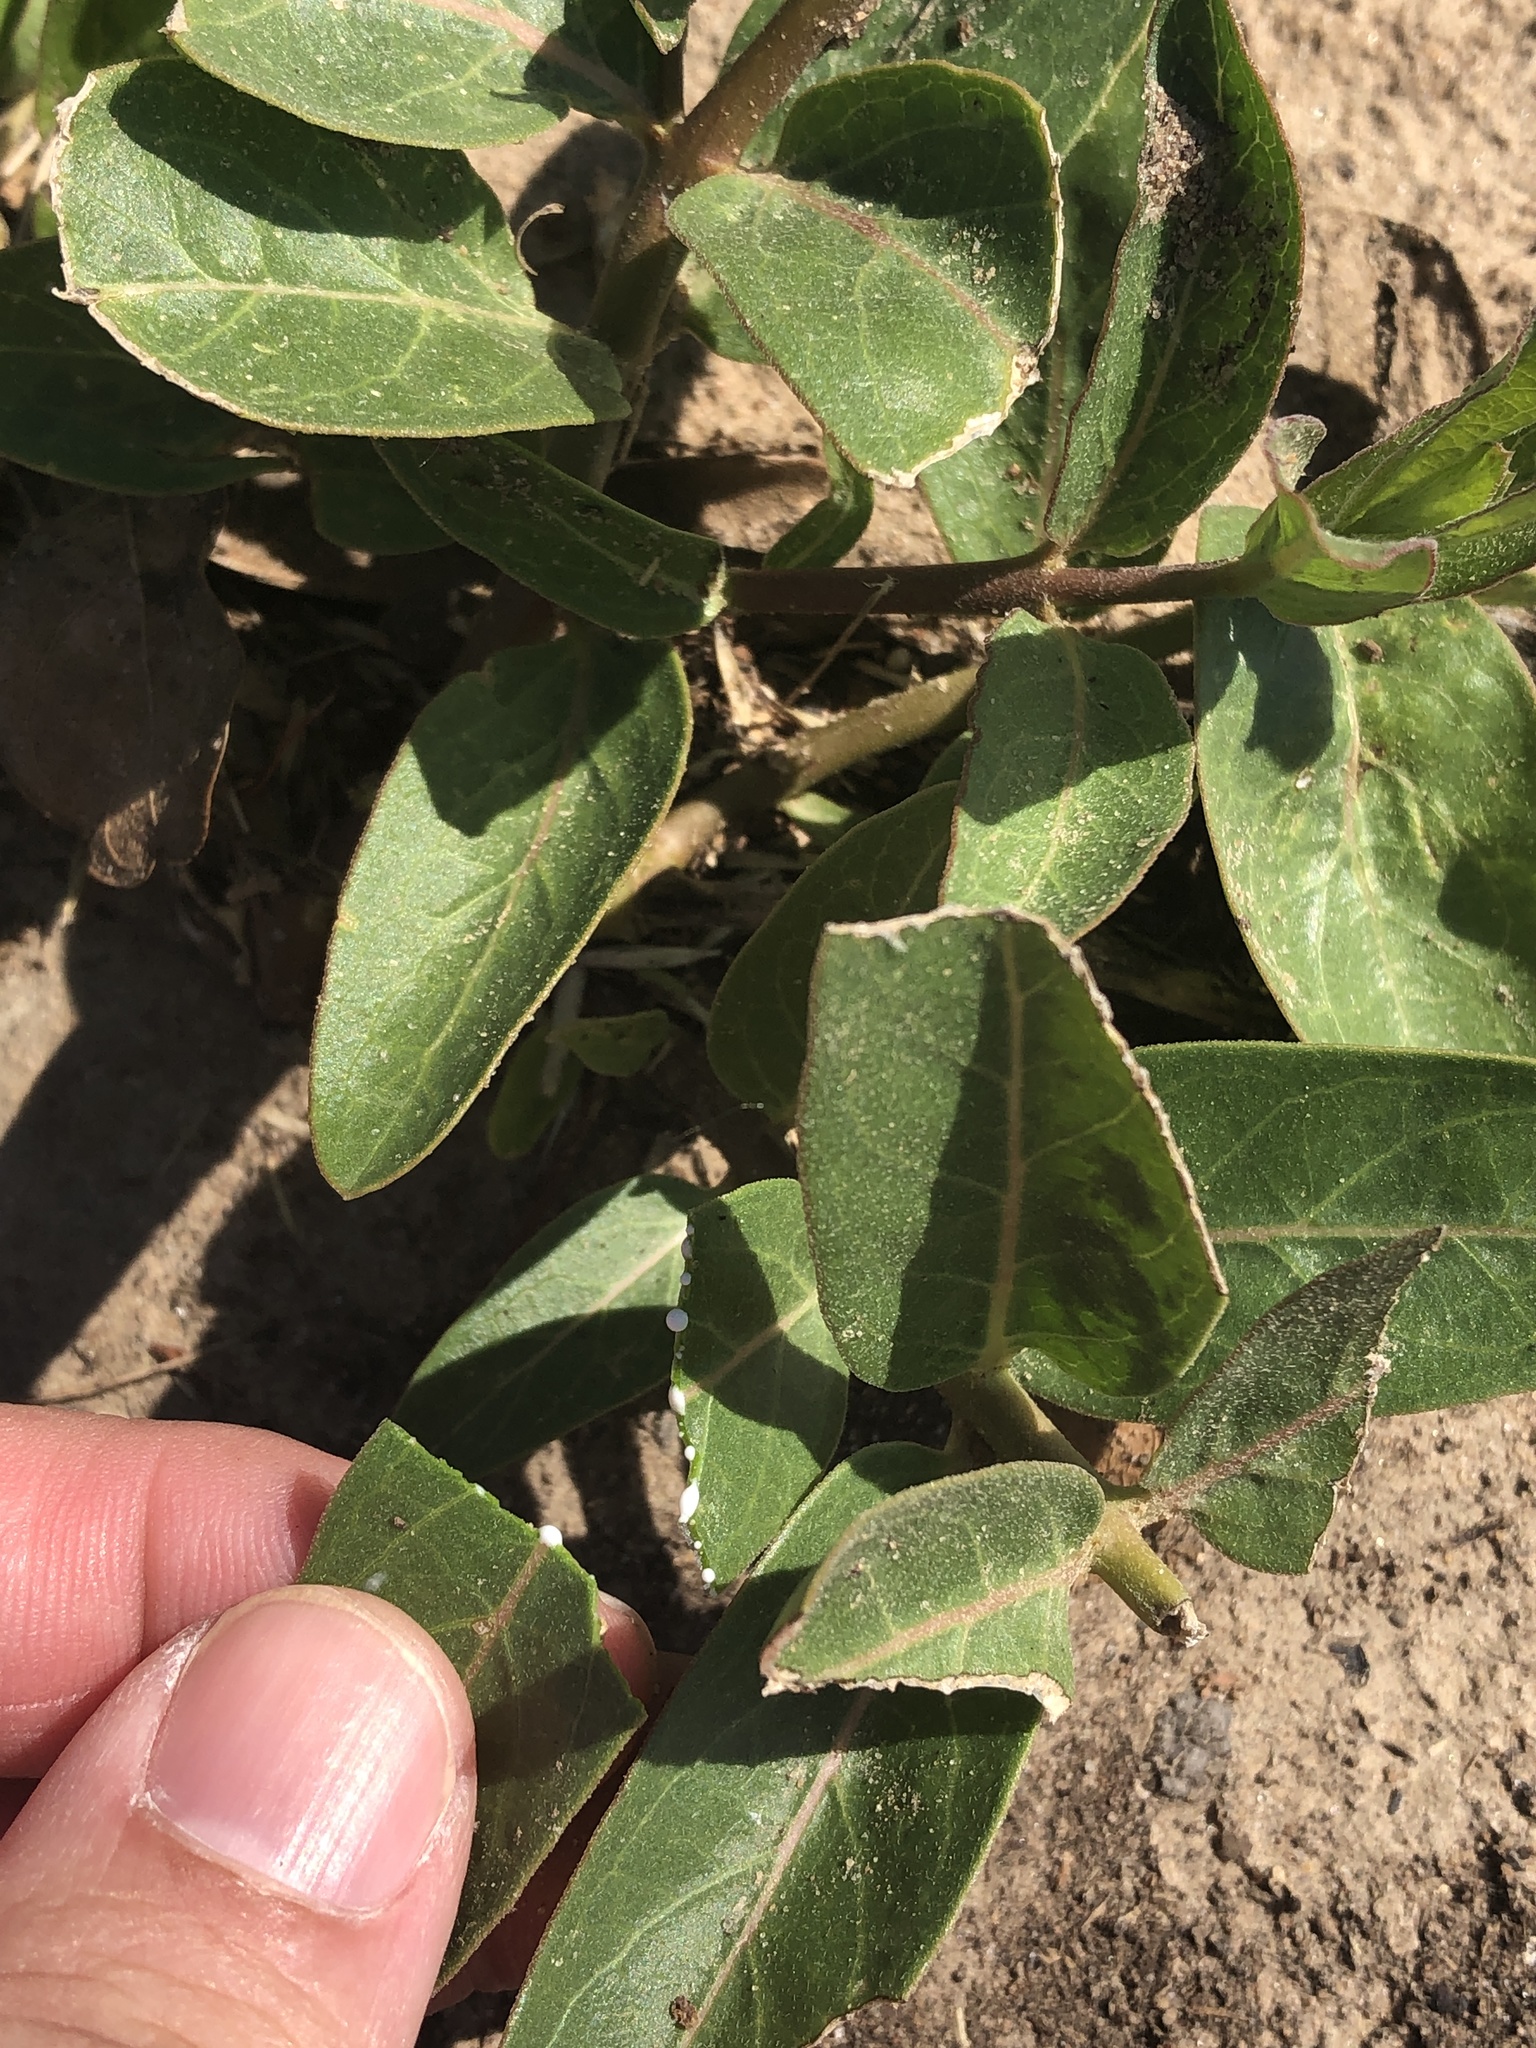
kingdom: Plantae
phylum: Tracheophyta
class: Magnoliopsida
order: Gentianales
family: Apocynaceae
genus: Asclepias
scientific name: Asclepias viridis
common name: Antelope-horns
